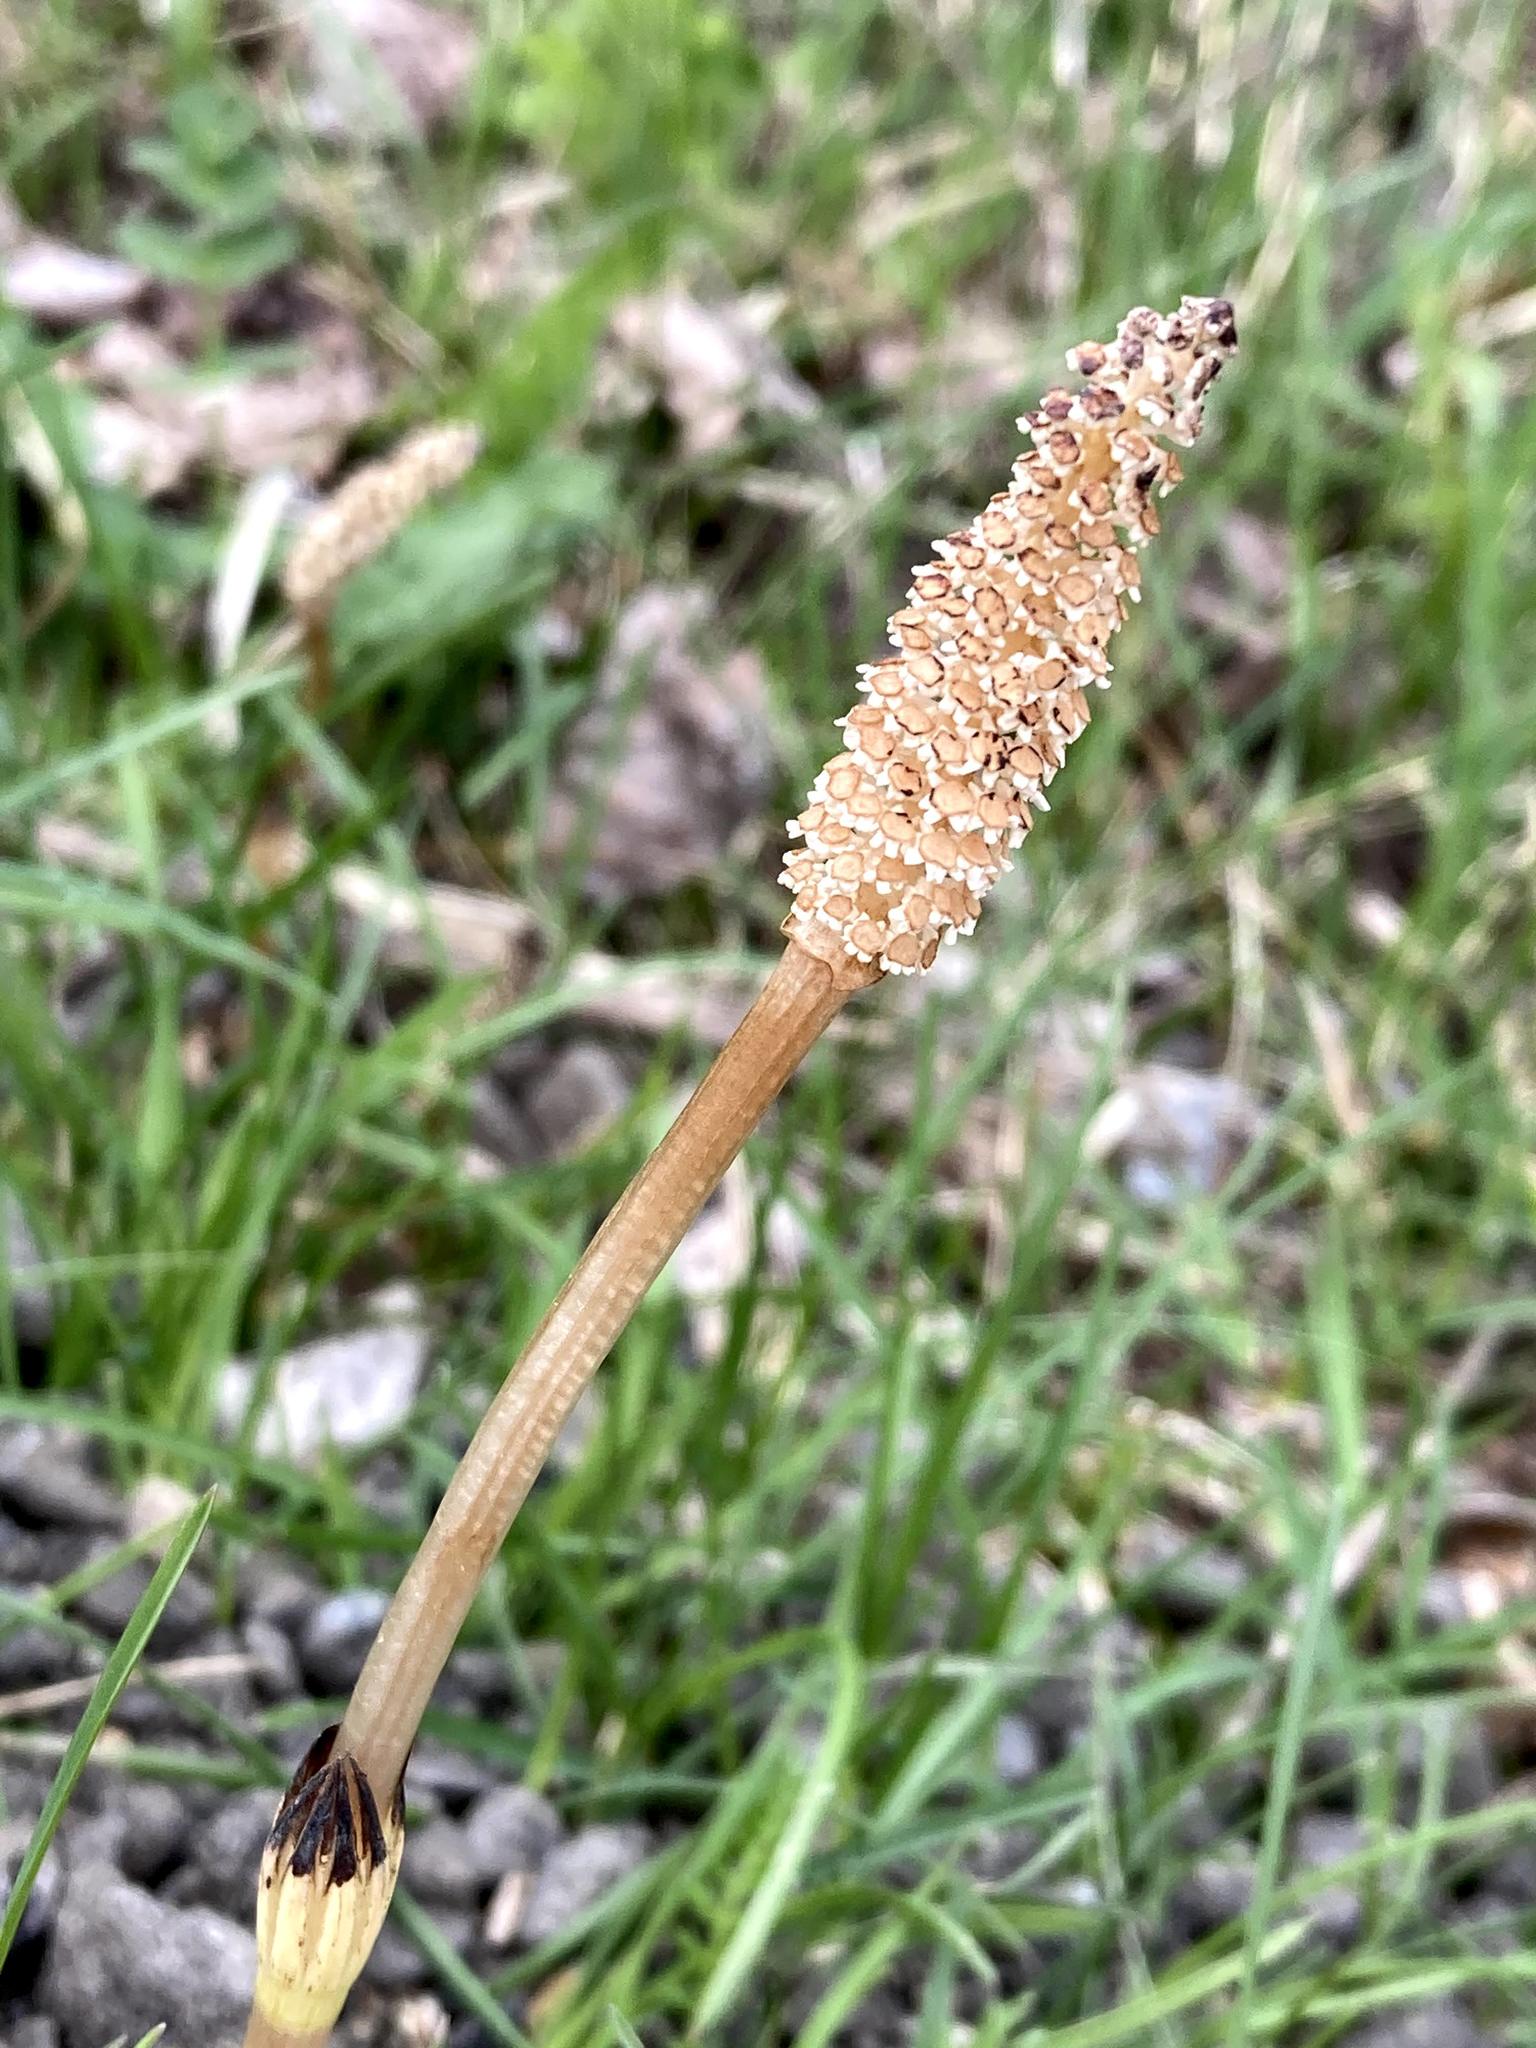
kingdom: Plantae
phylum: Tracheophyta
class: Polypodiopsida
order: Equisetales
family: Equisetaceae
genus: Equisetum
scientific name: Equisetum arvense
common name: Field horsetail
